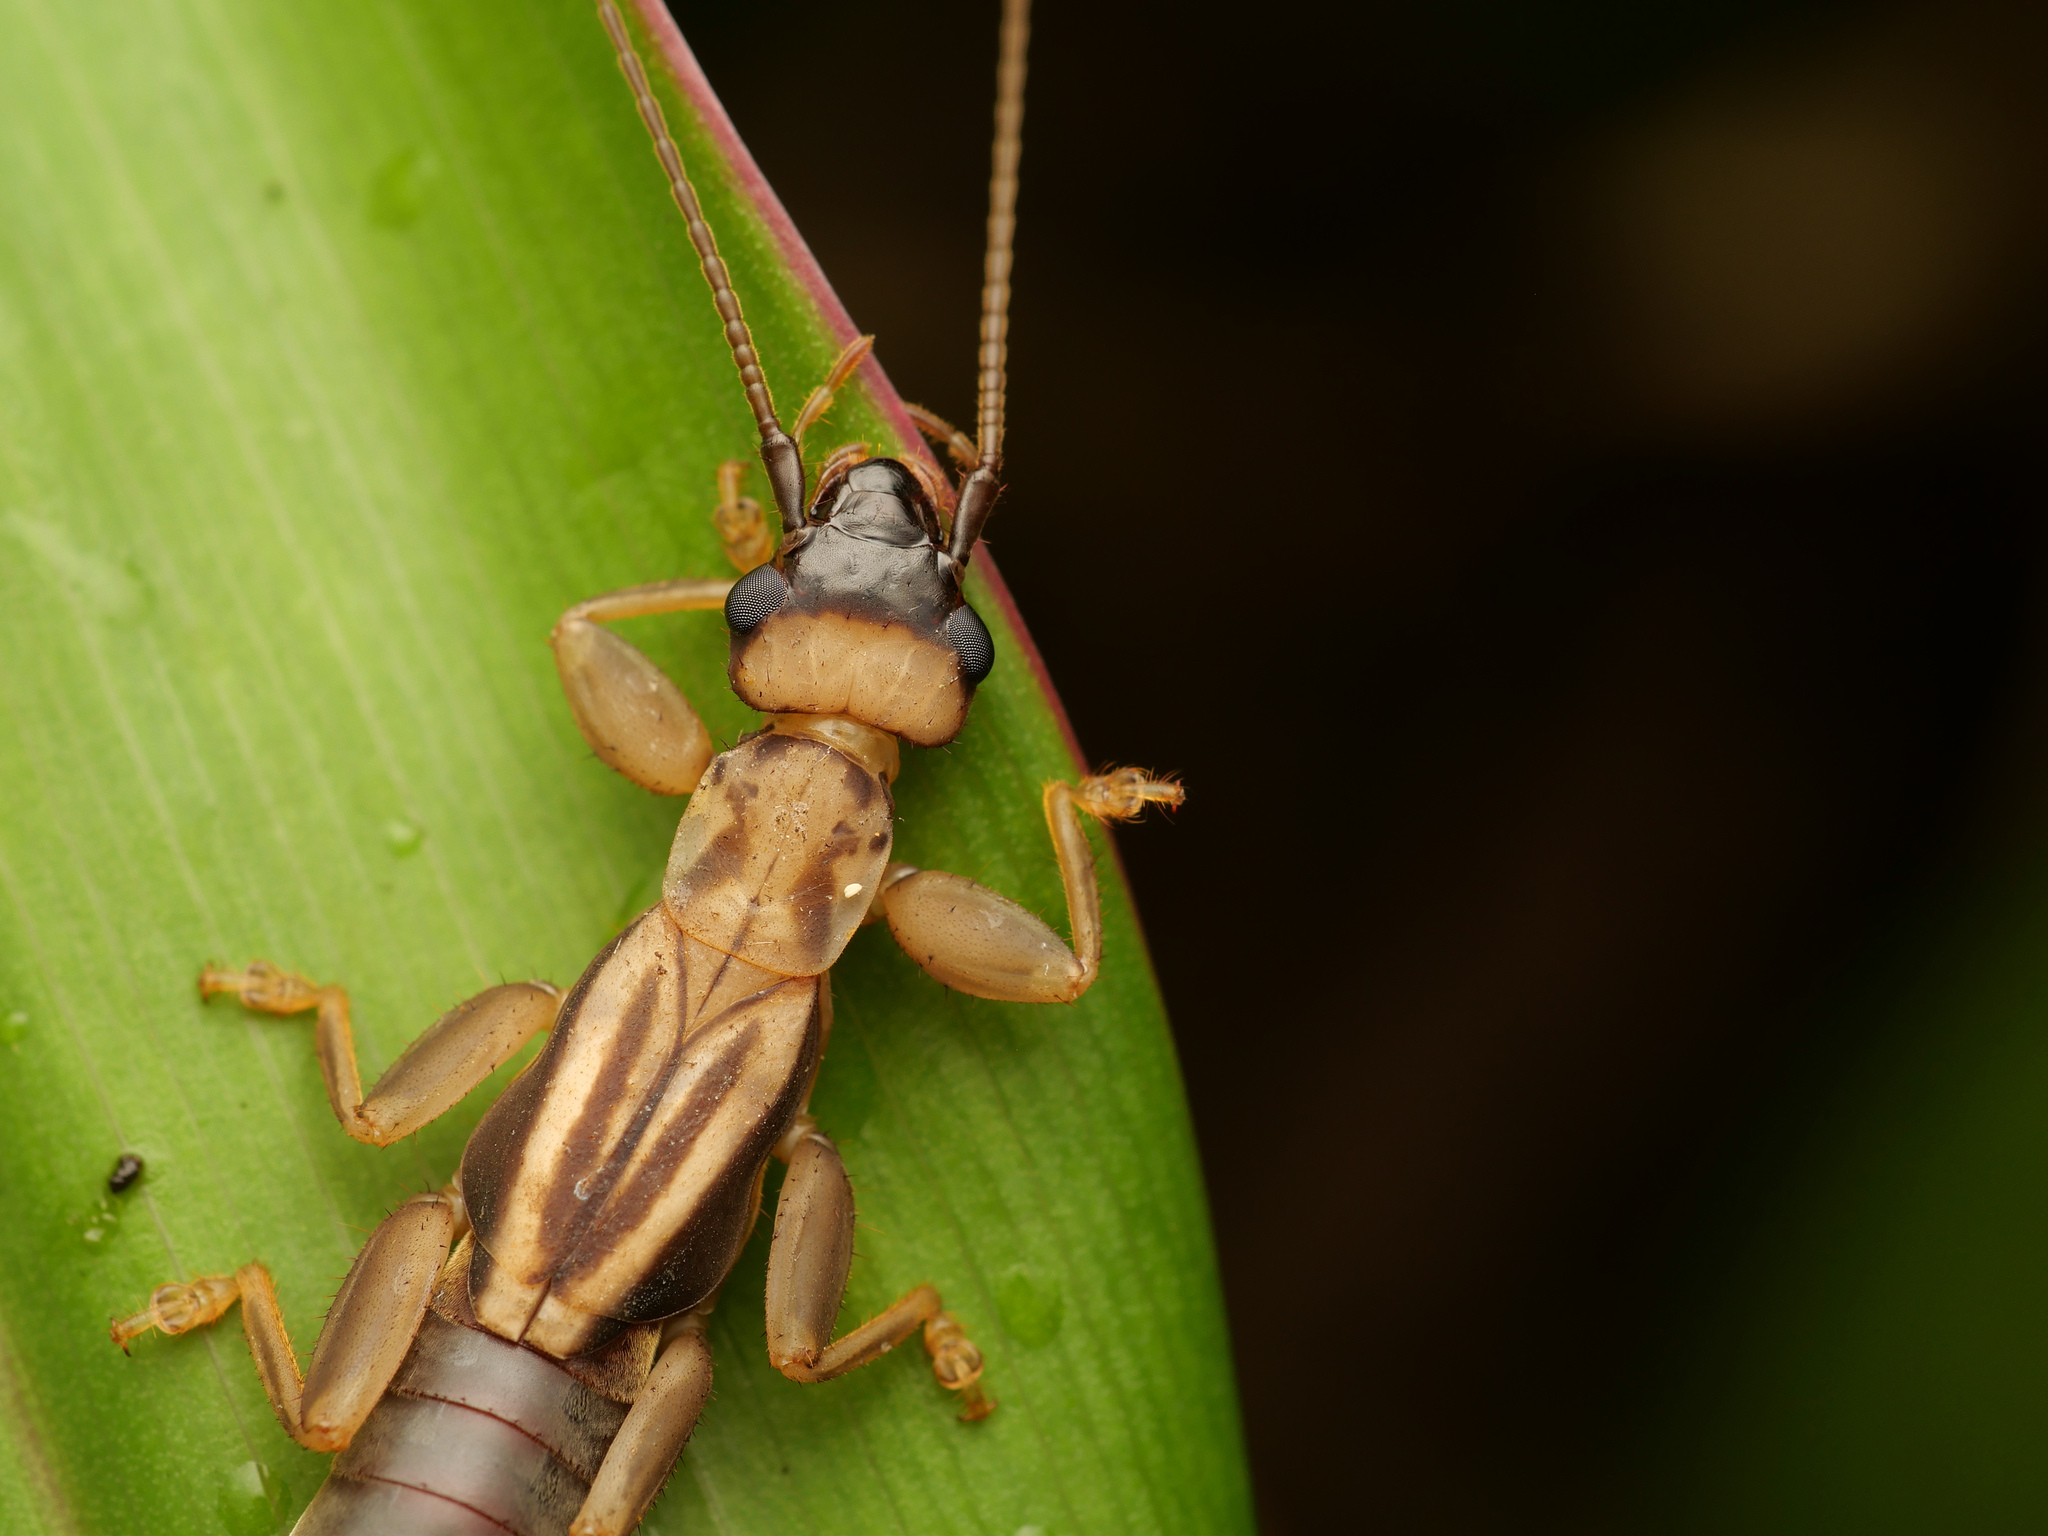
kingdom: Animalia
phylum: Arthropoda
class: Insecta
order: Dermaptera
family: Pygidicranidae
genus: Tagalina
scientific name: Tagalina papua
